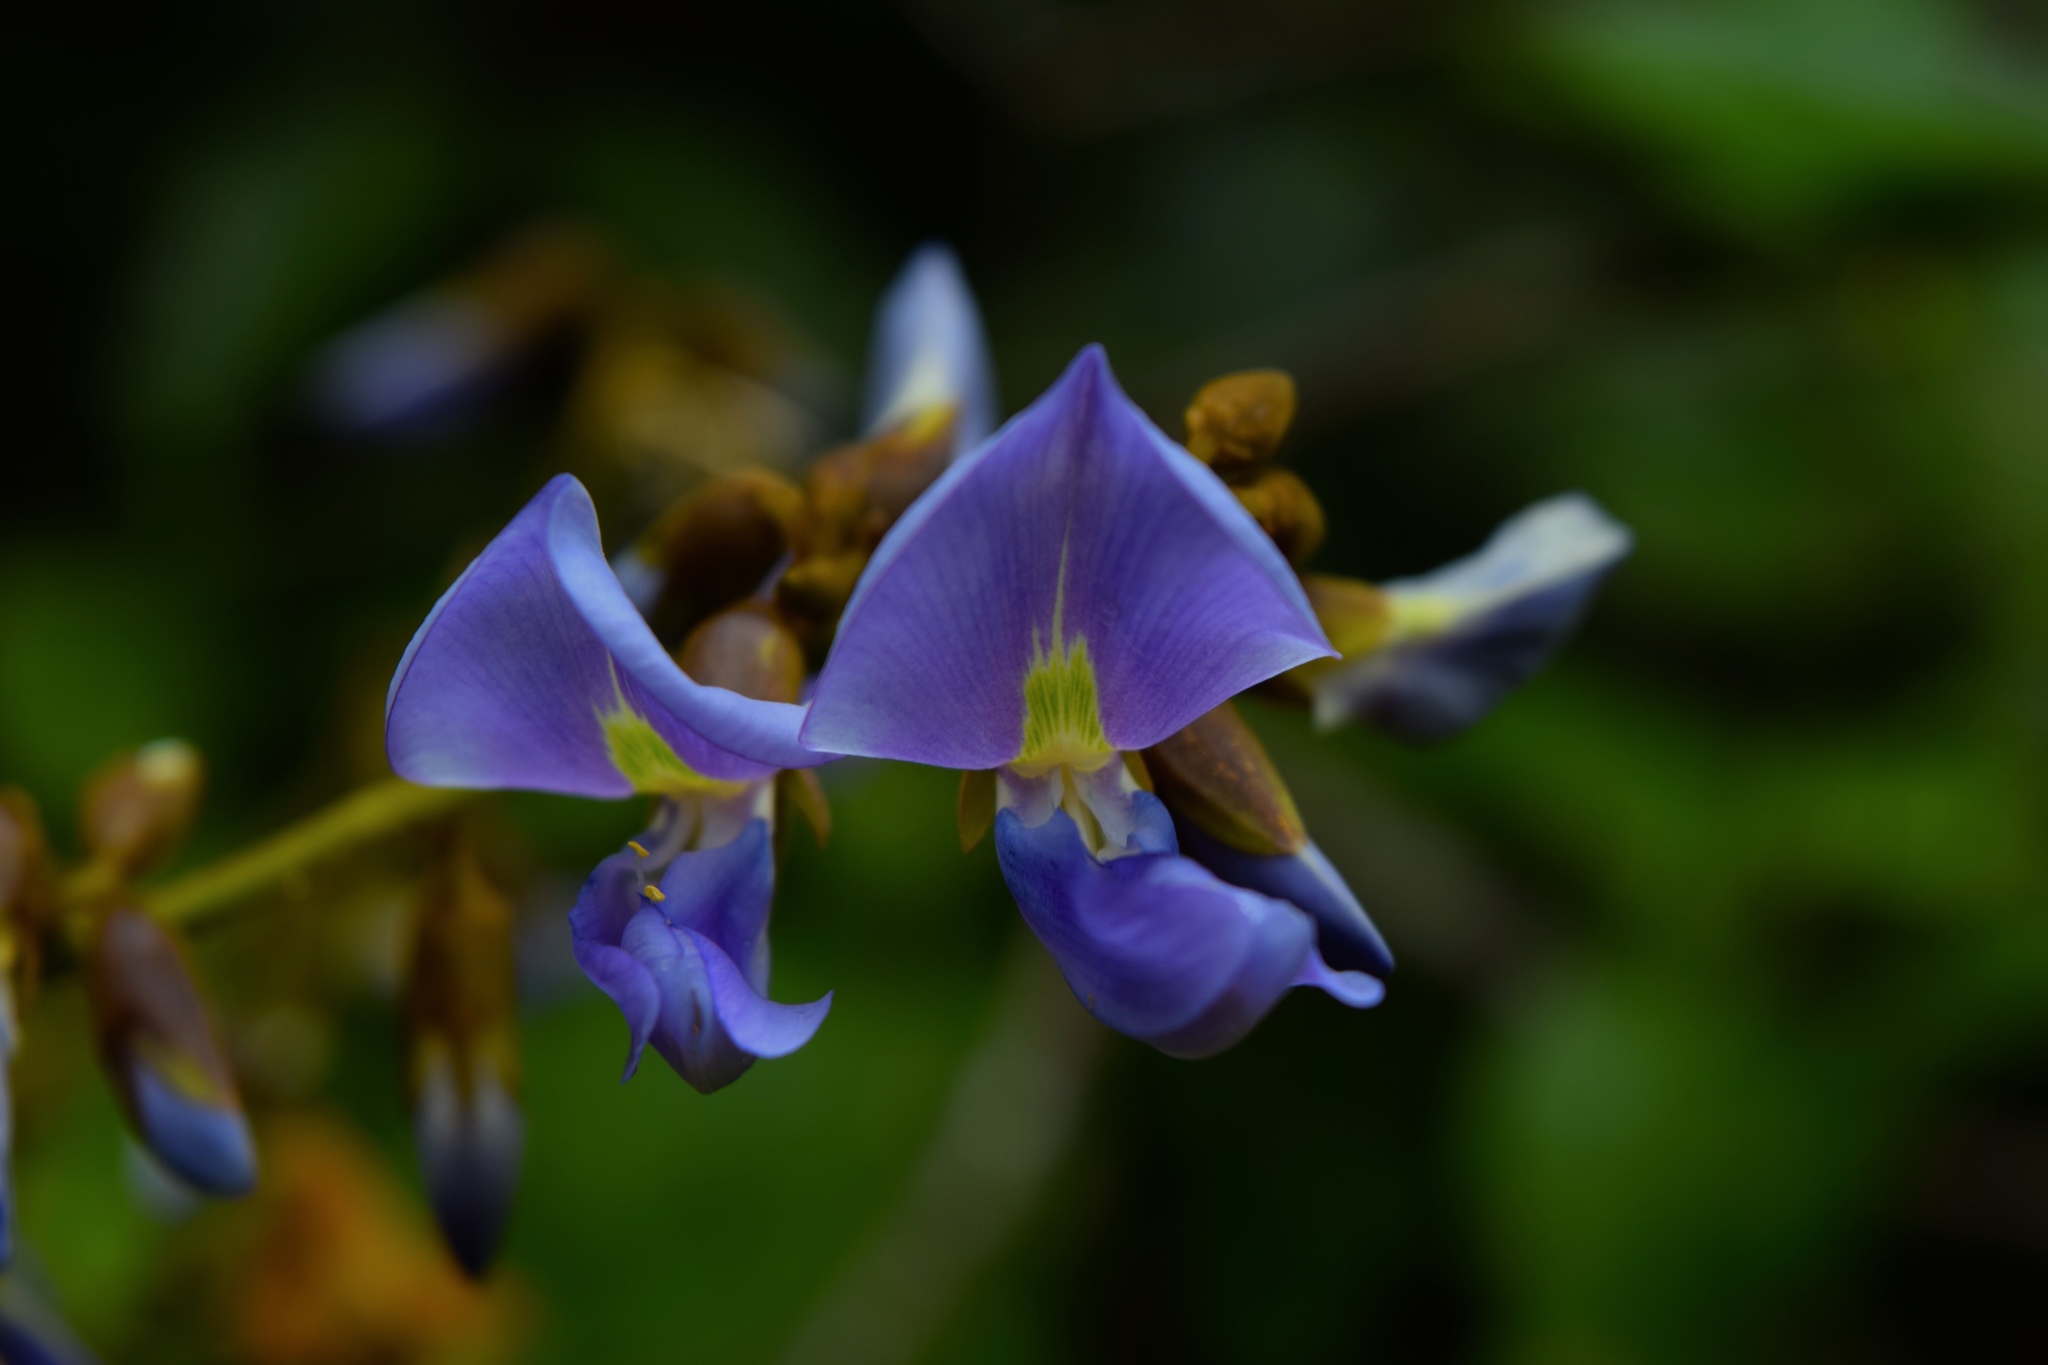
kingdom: Plantae
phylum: Tracheophyta
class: Magnoliopsida
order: Fabales
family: Fabaceae
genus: Pachyrhizus
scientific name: Pachyrhizus erosus
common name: Yam bean
